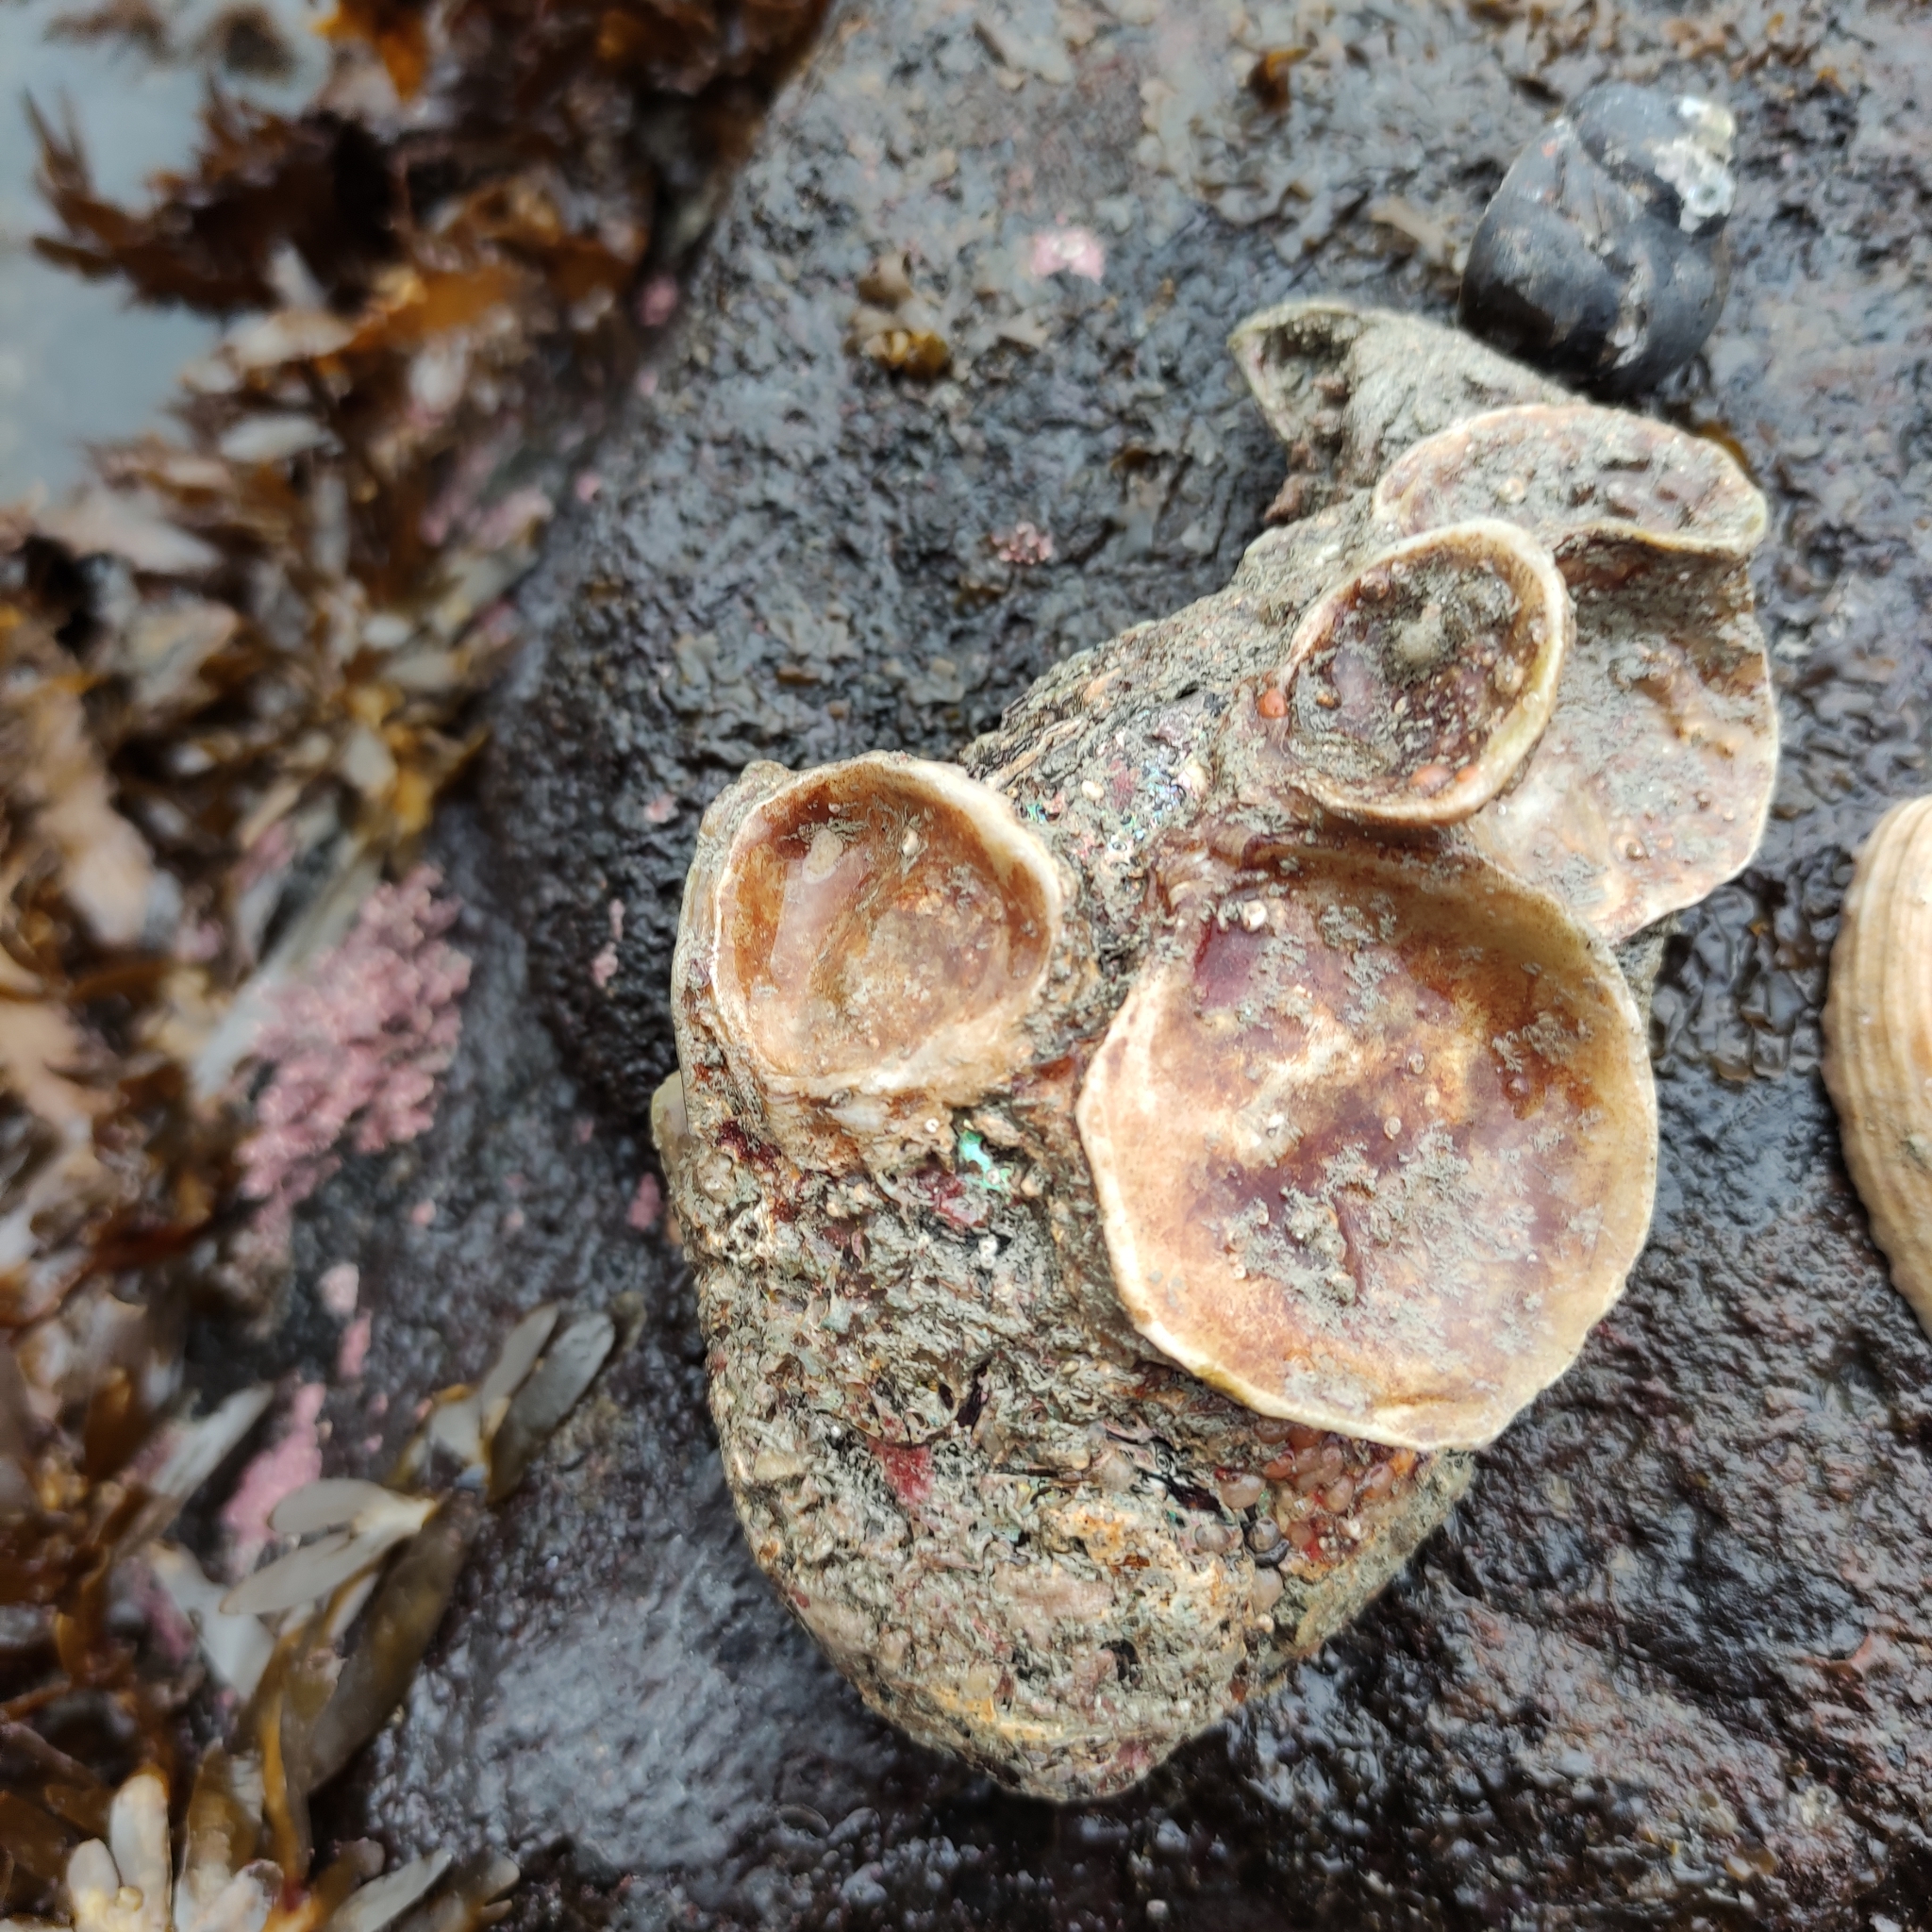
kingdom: Animalia
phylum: Mollusca
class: Bivalvia
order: Ostreida
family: Ostreidae
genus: Ostrea
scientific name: Ostrea chilensis
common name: Chilean oyster
